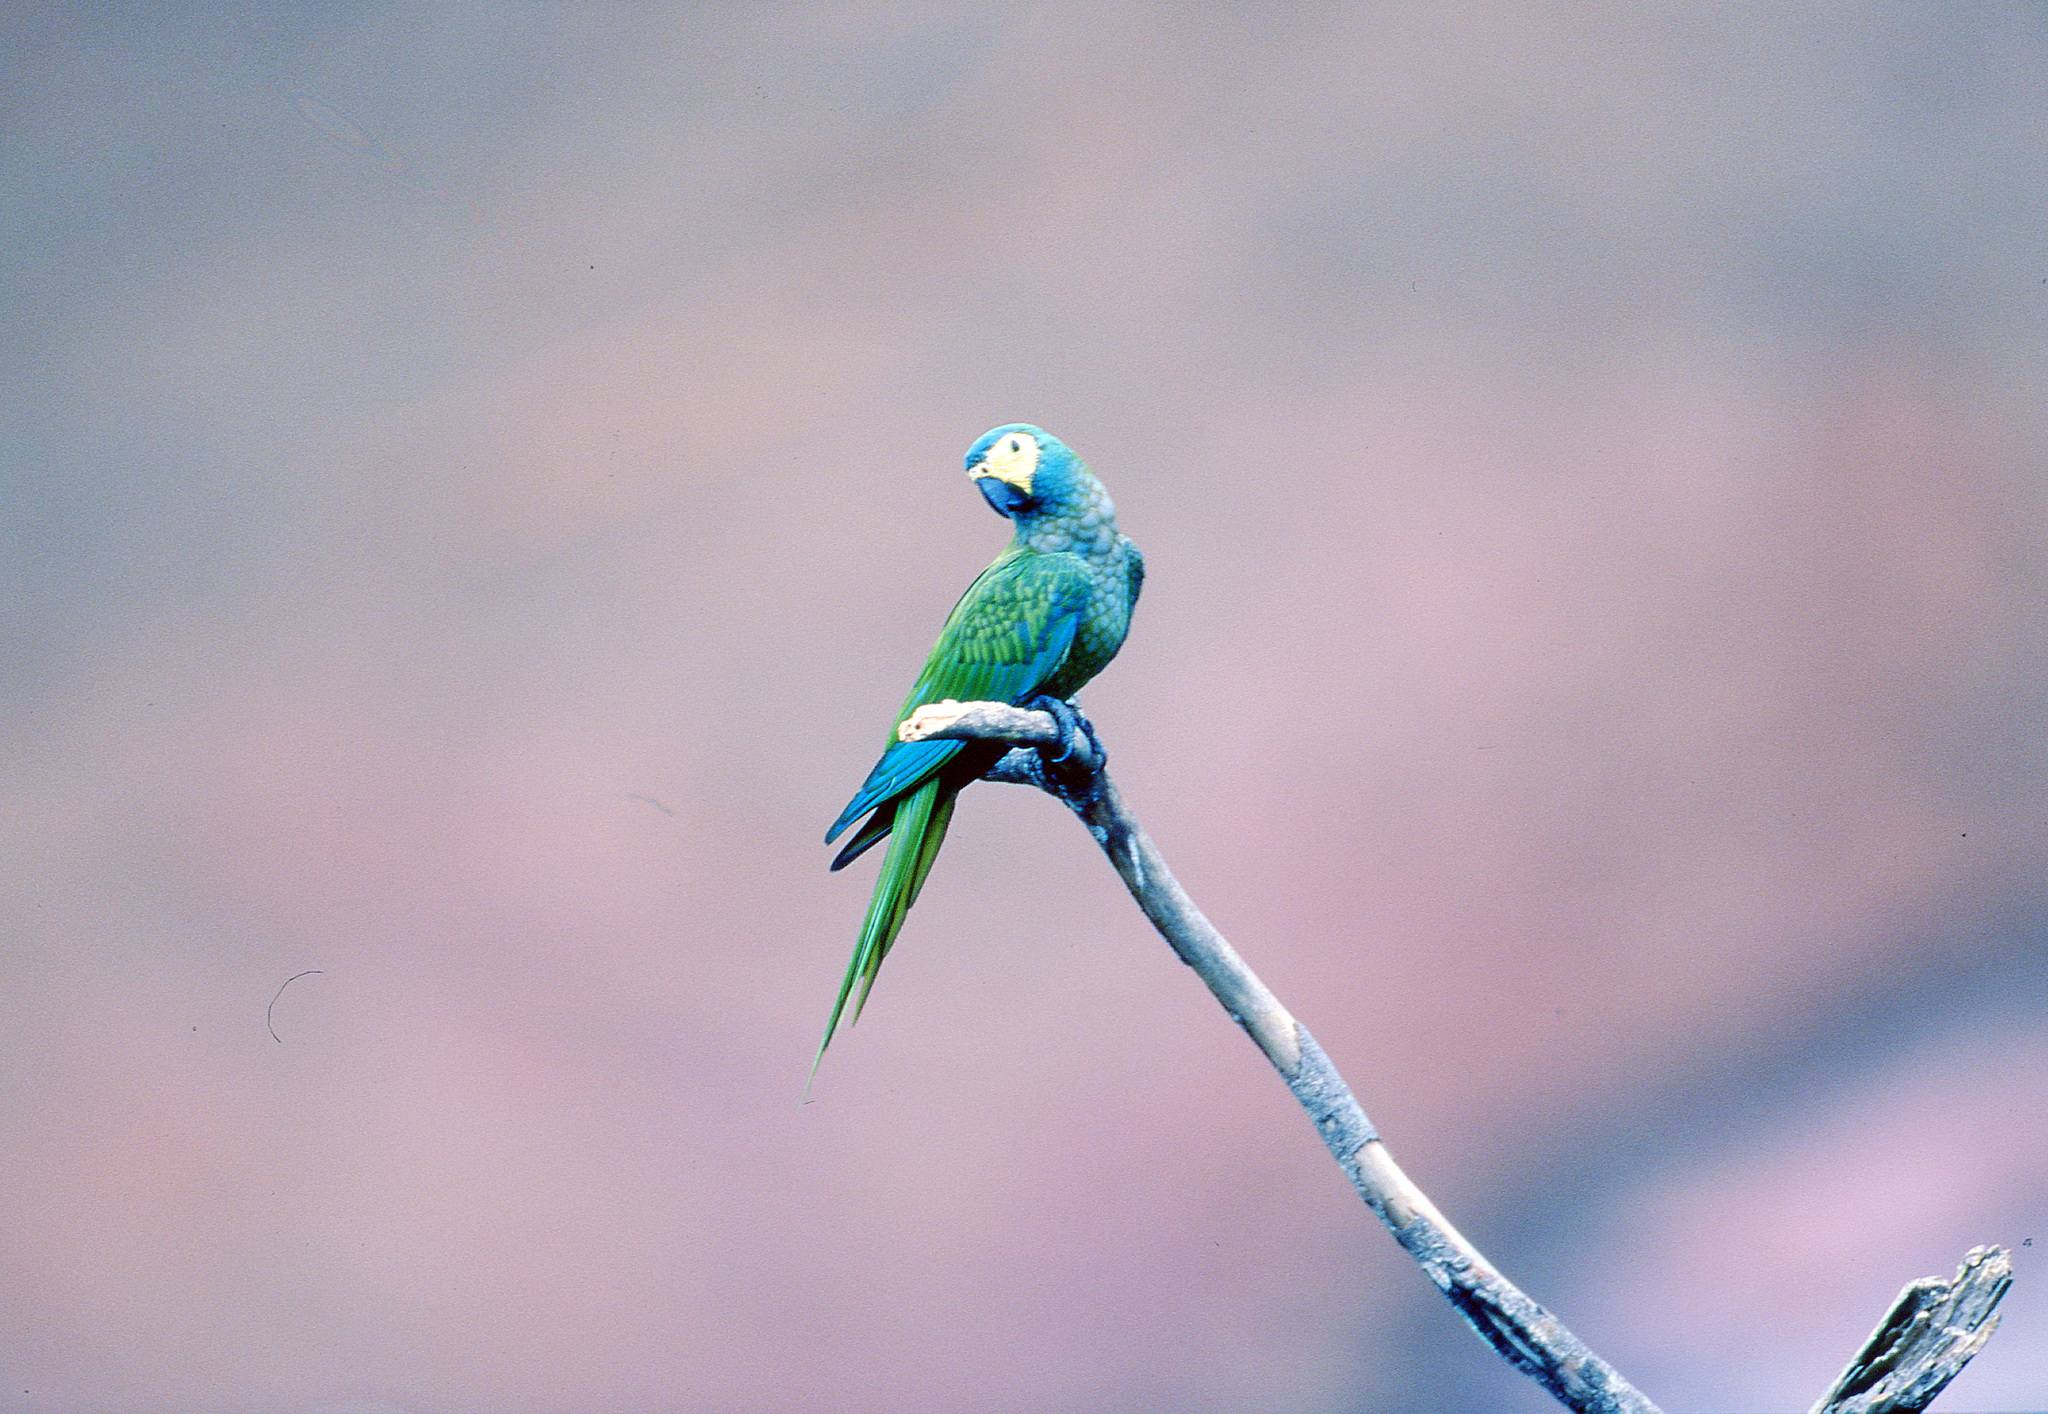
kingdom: Animalia
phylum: Chordata
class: Aves
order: Psittaciformes
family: Psittacidae
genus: Orthopsittaca
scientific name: Orthopsittaca manilata
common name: Red-bellied macaw
